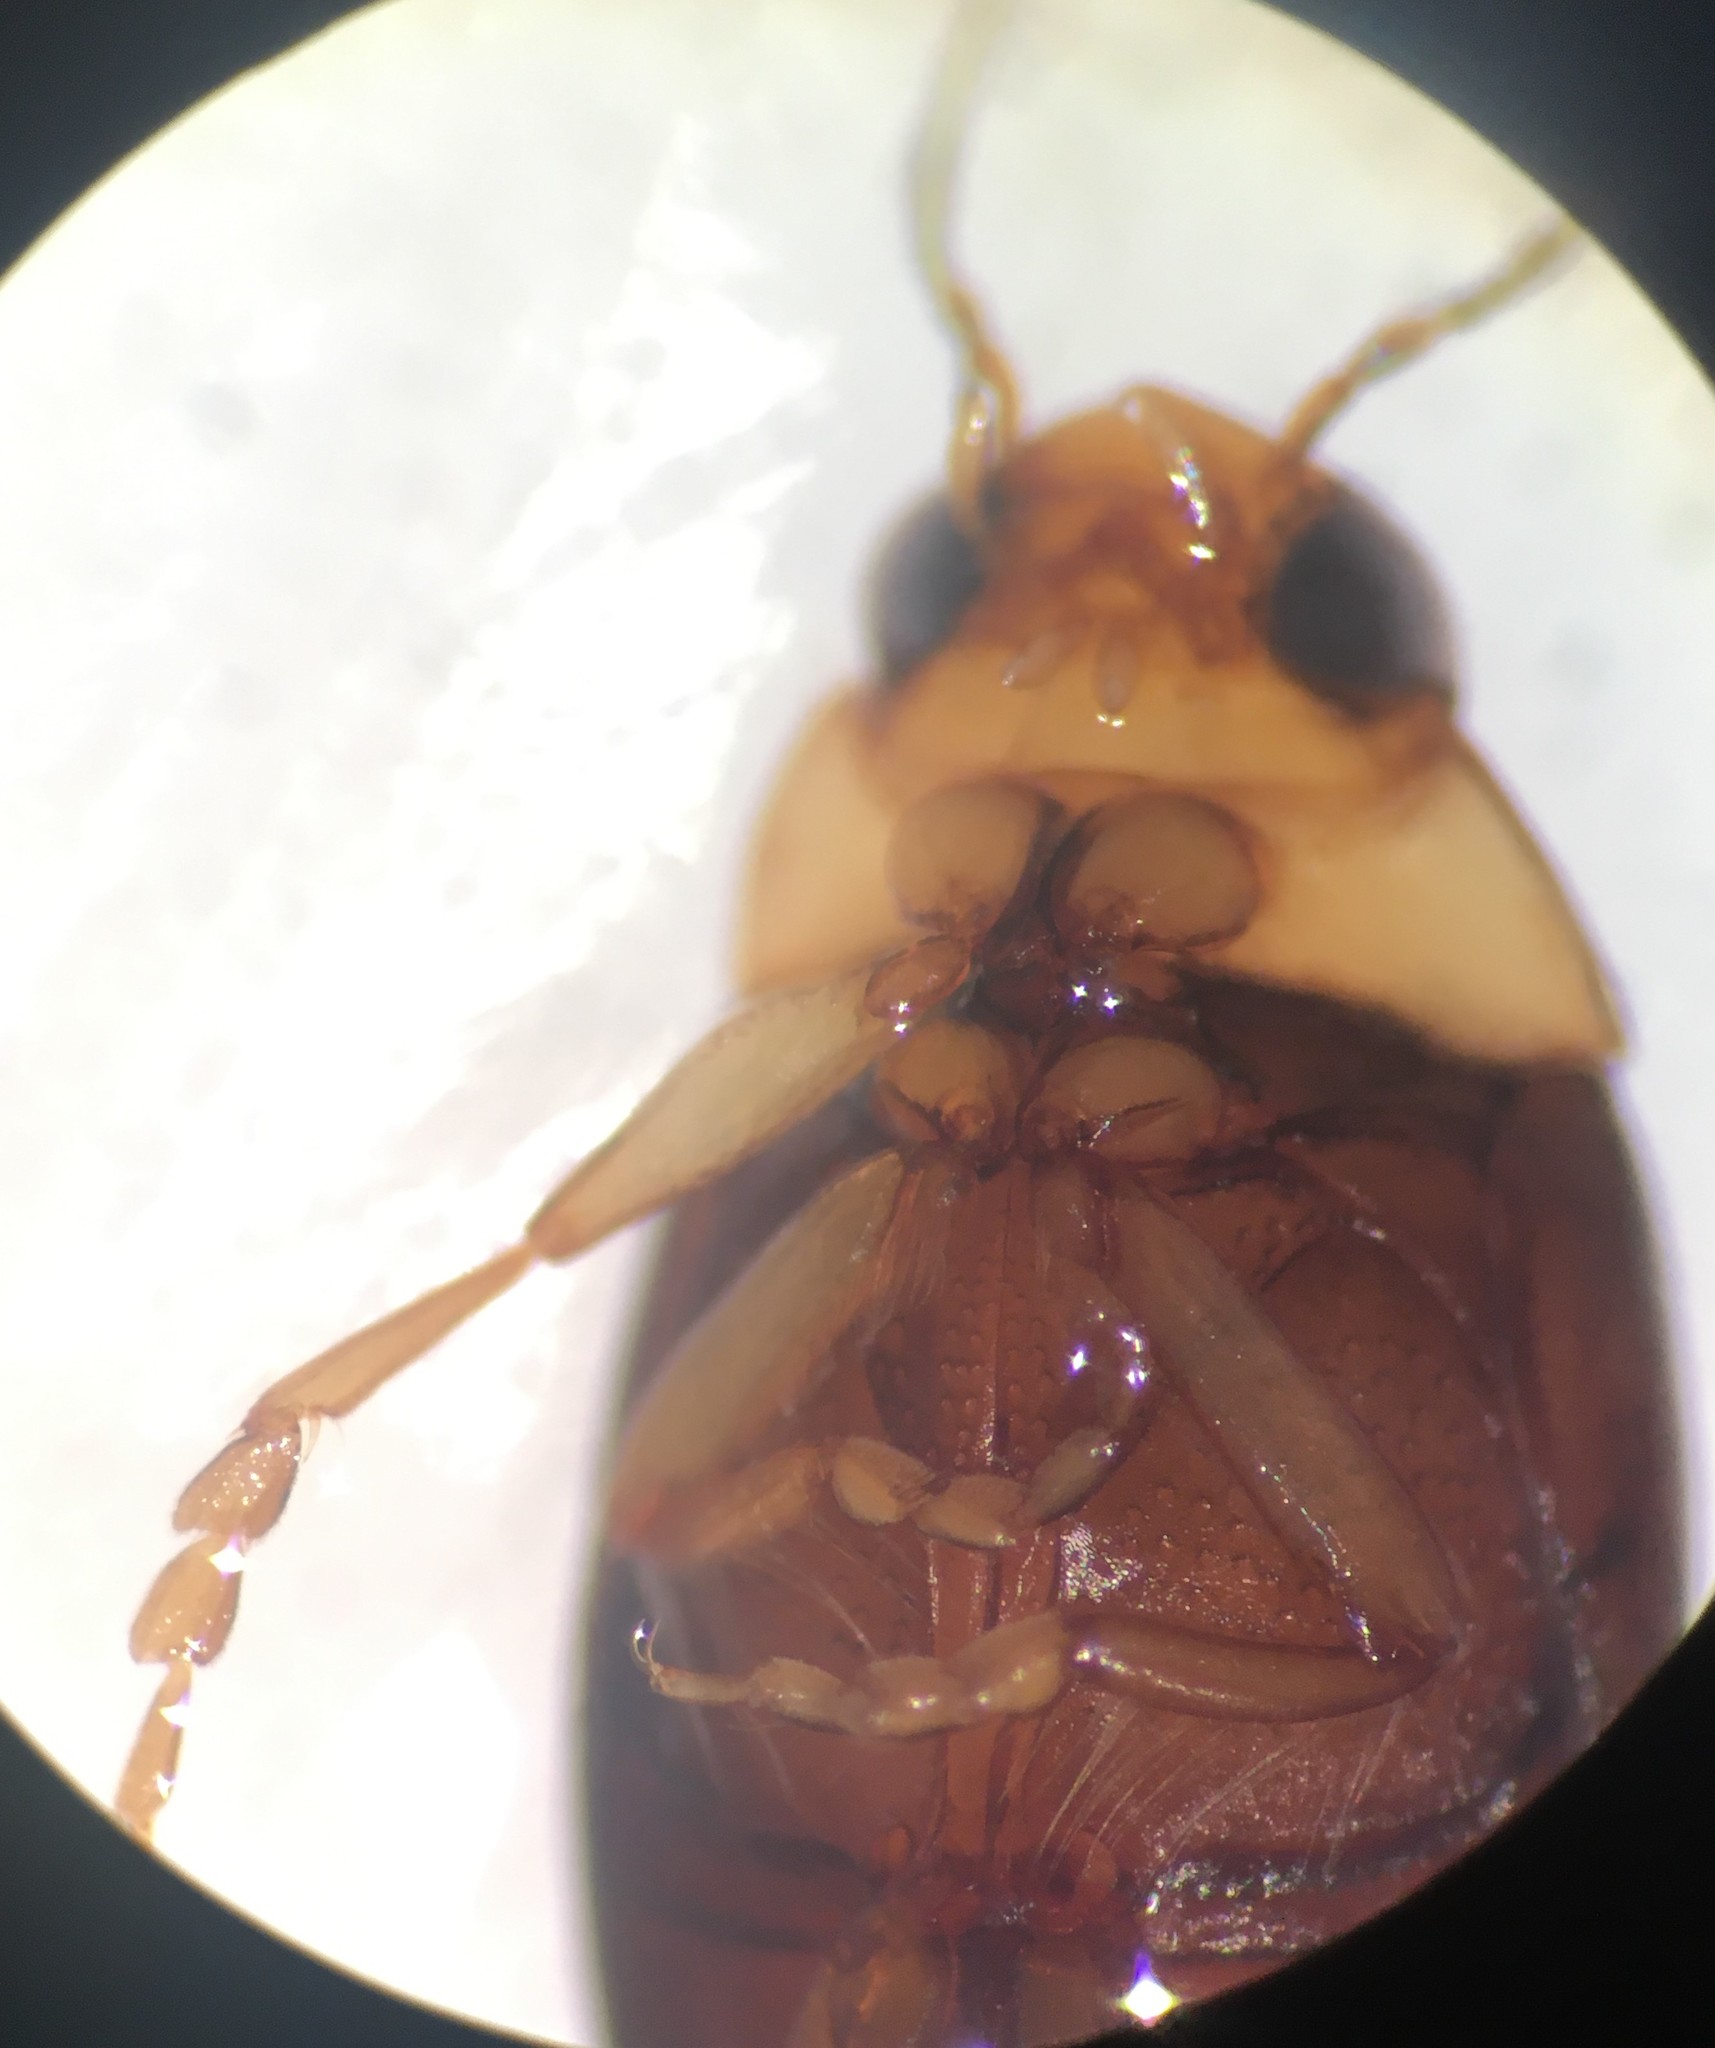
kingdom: Animalia
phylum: Arthropoda
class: Insecta
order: Coleoptera
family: Dytiscidae
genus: Derovatellus
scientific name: Derovatellus floridanus
